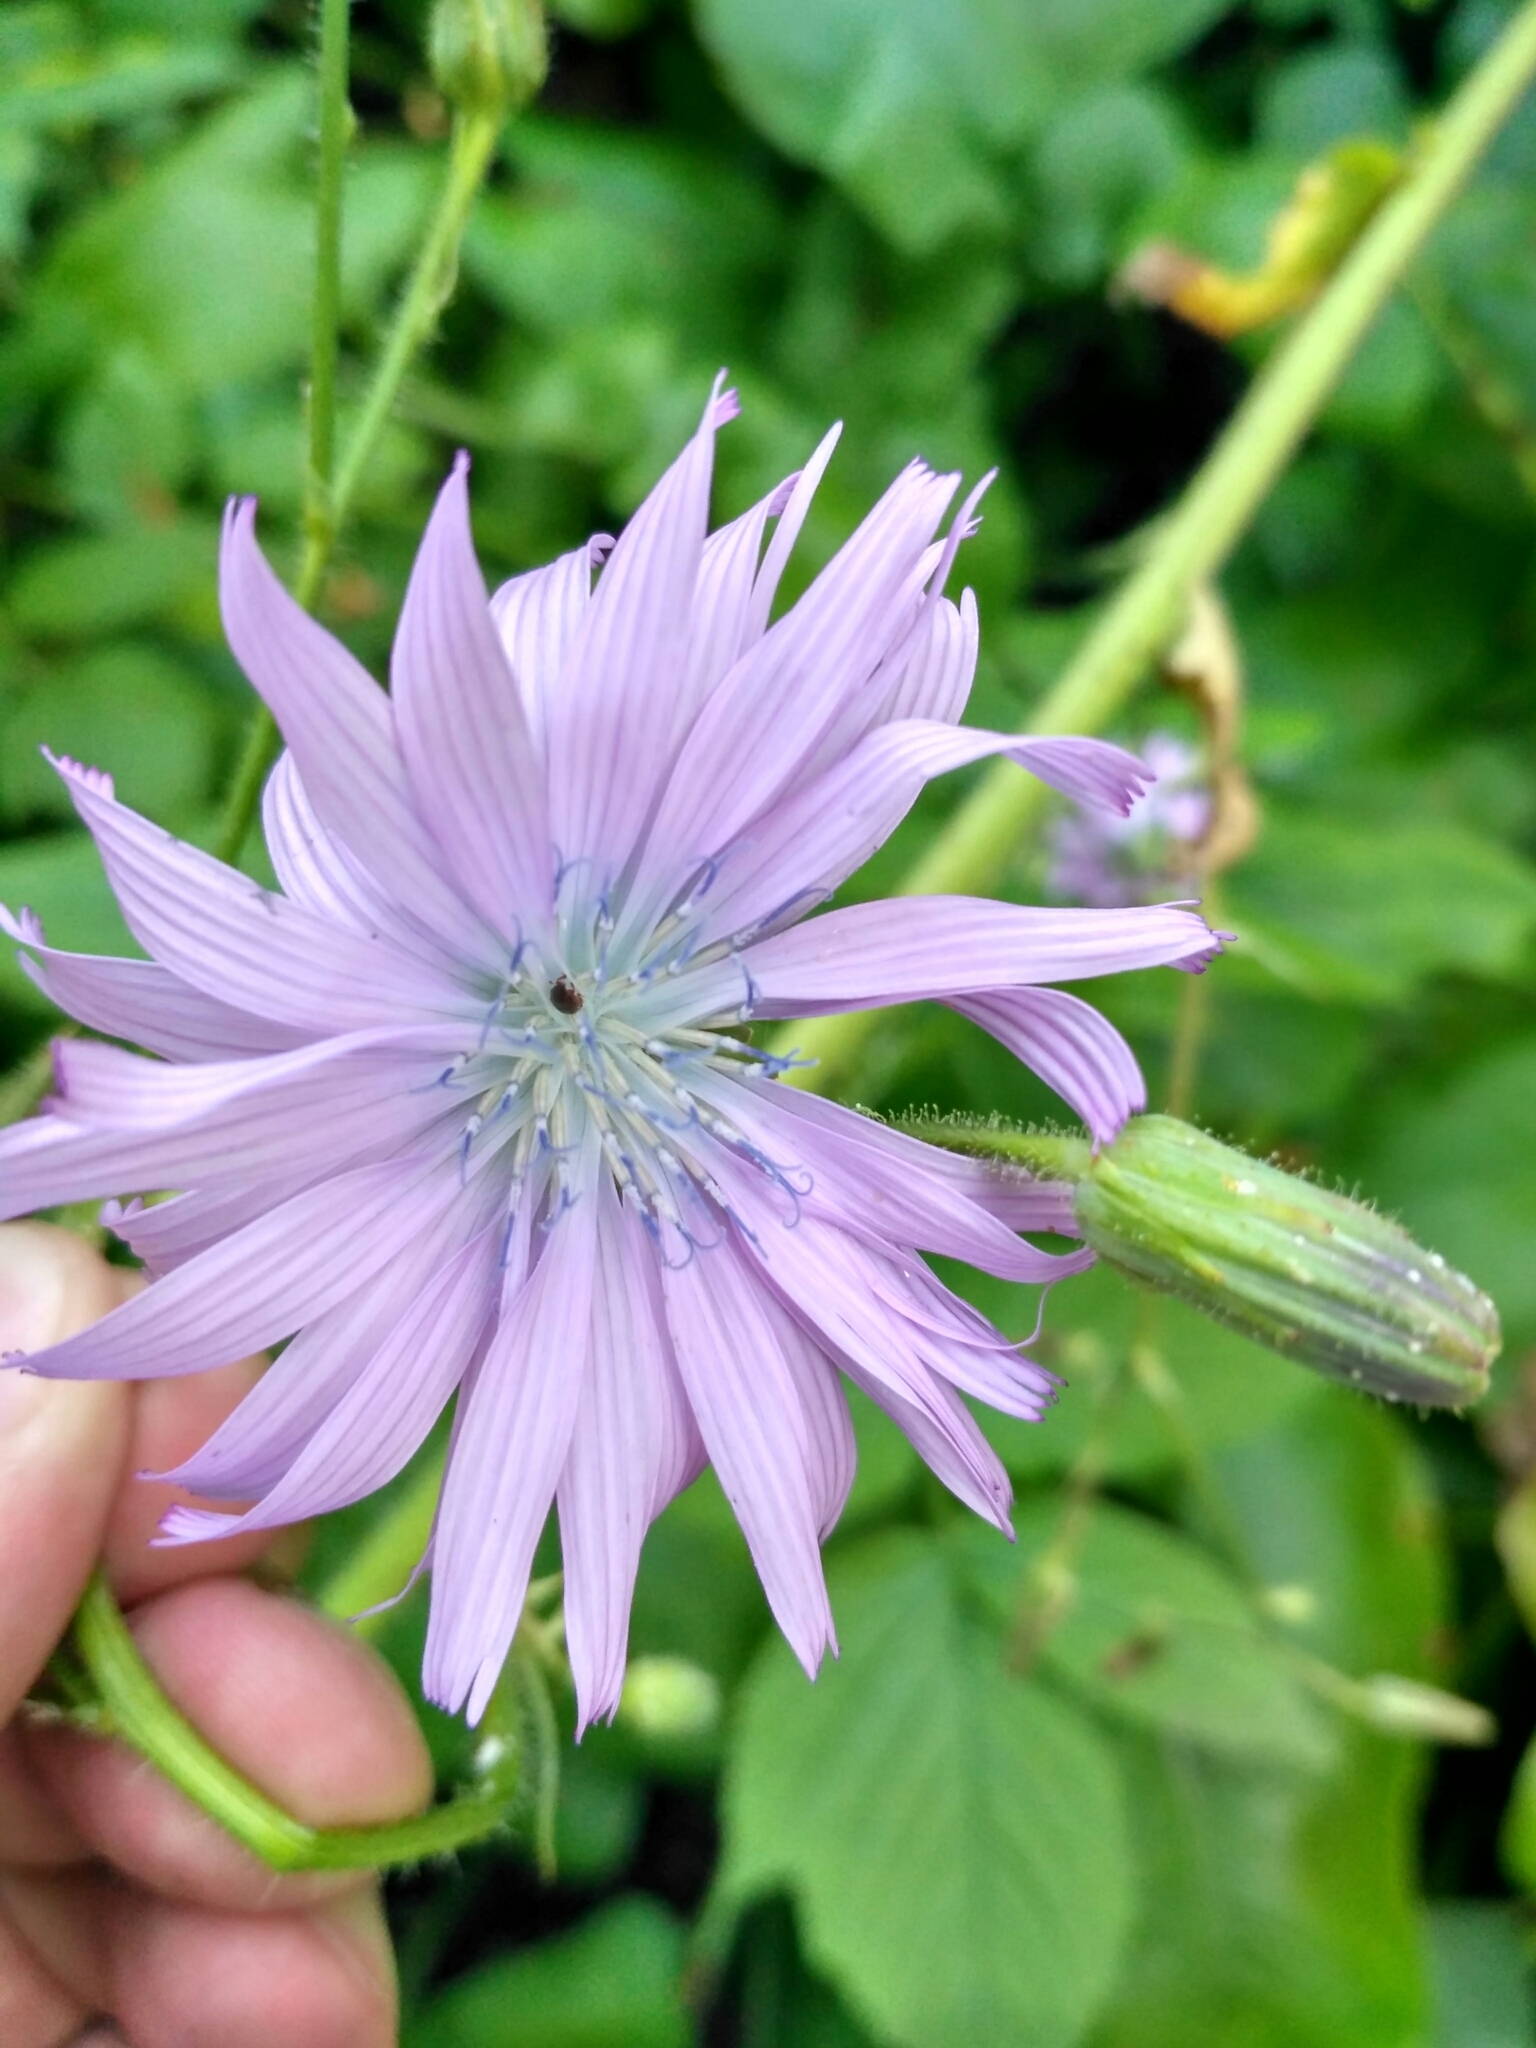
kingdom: Plantae
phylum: Tracheophyta
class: Magnoliopsida
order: Asterales
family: Asteraceae
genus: Lactuca
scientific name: Lactuca macrophylla
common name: Common blue-sow-thistle
